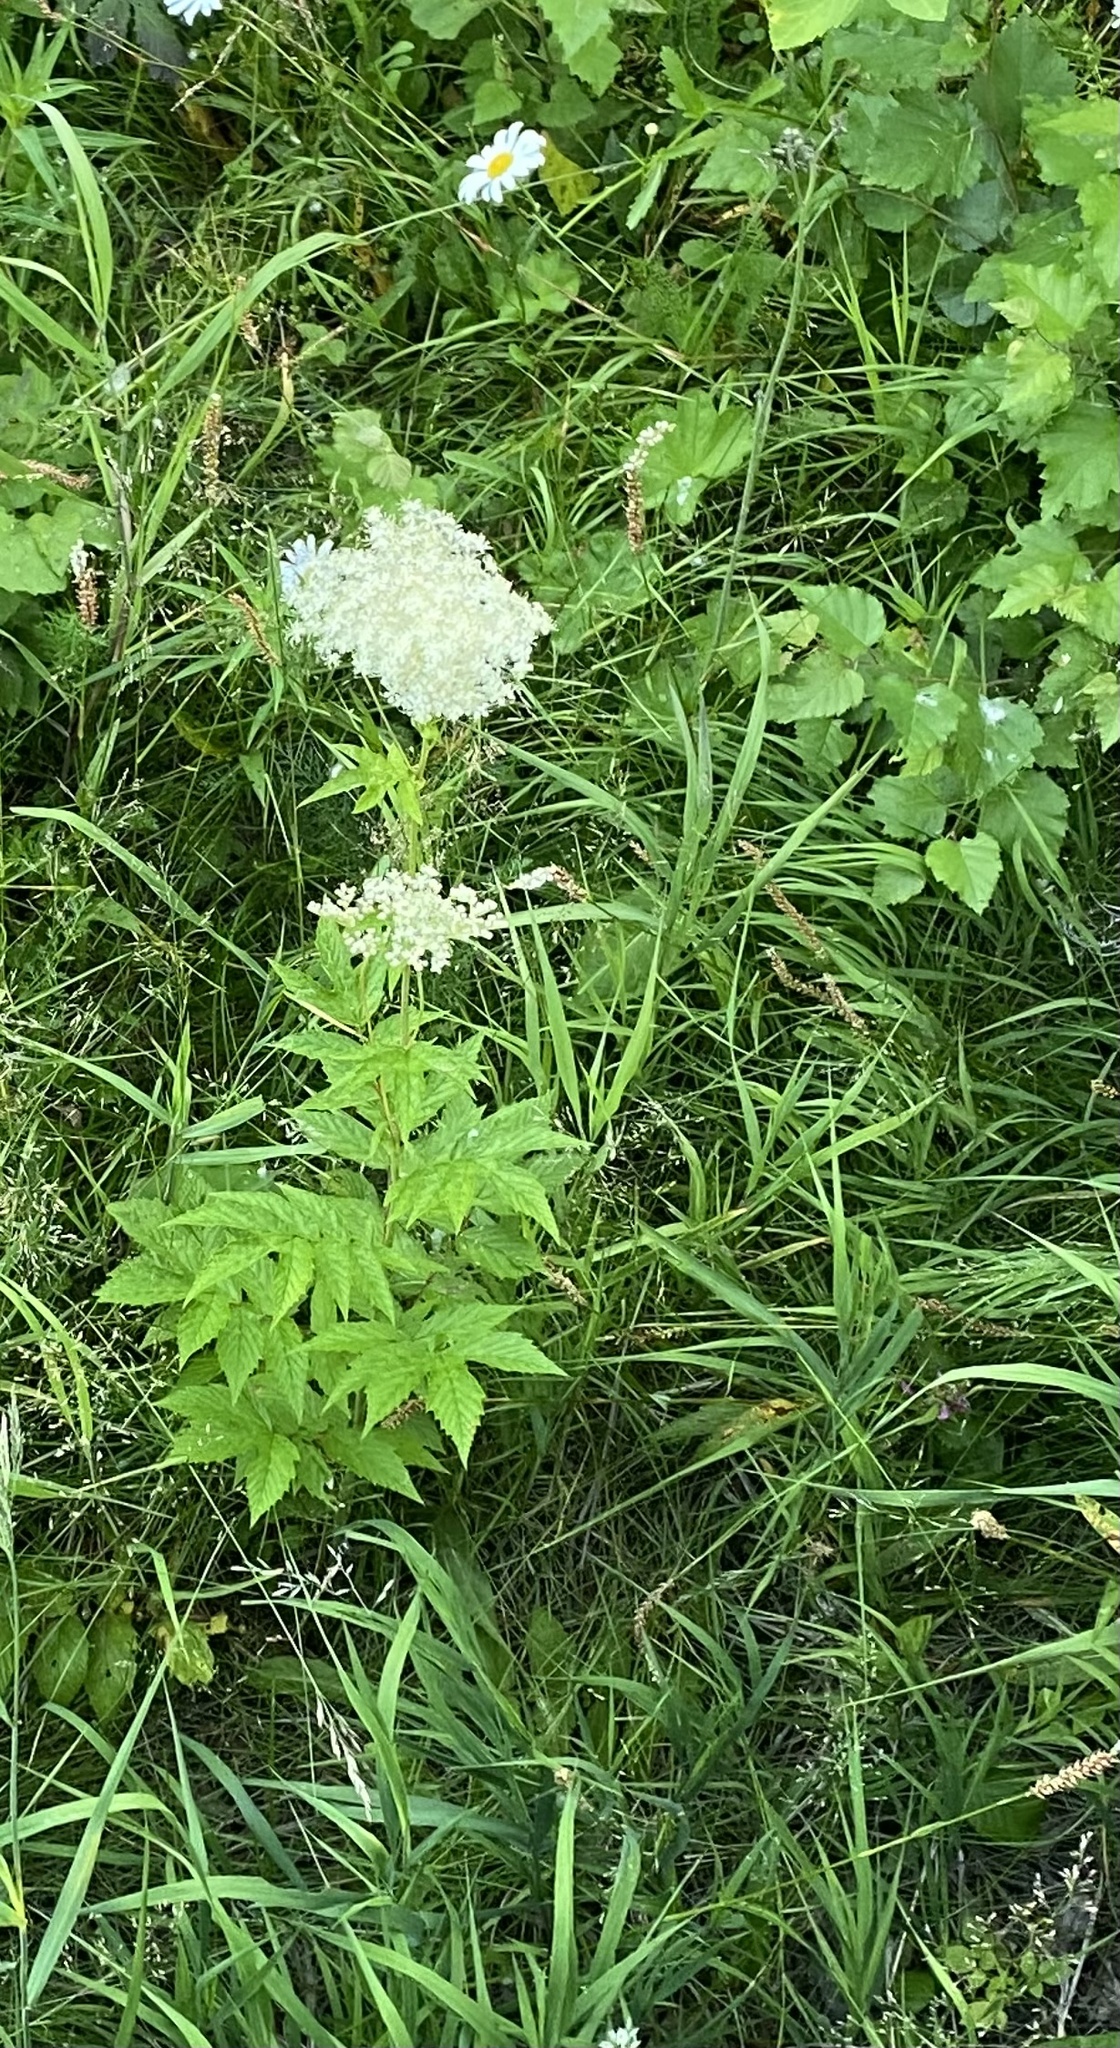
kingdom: Plantae
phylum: Tracheophyta
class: Magnoliopsida
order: Rosales
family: Rosaceae
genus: Filipendula
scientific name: Filipendula ulmaria
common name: Meadowsweet
